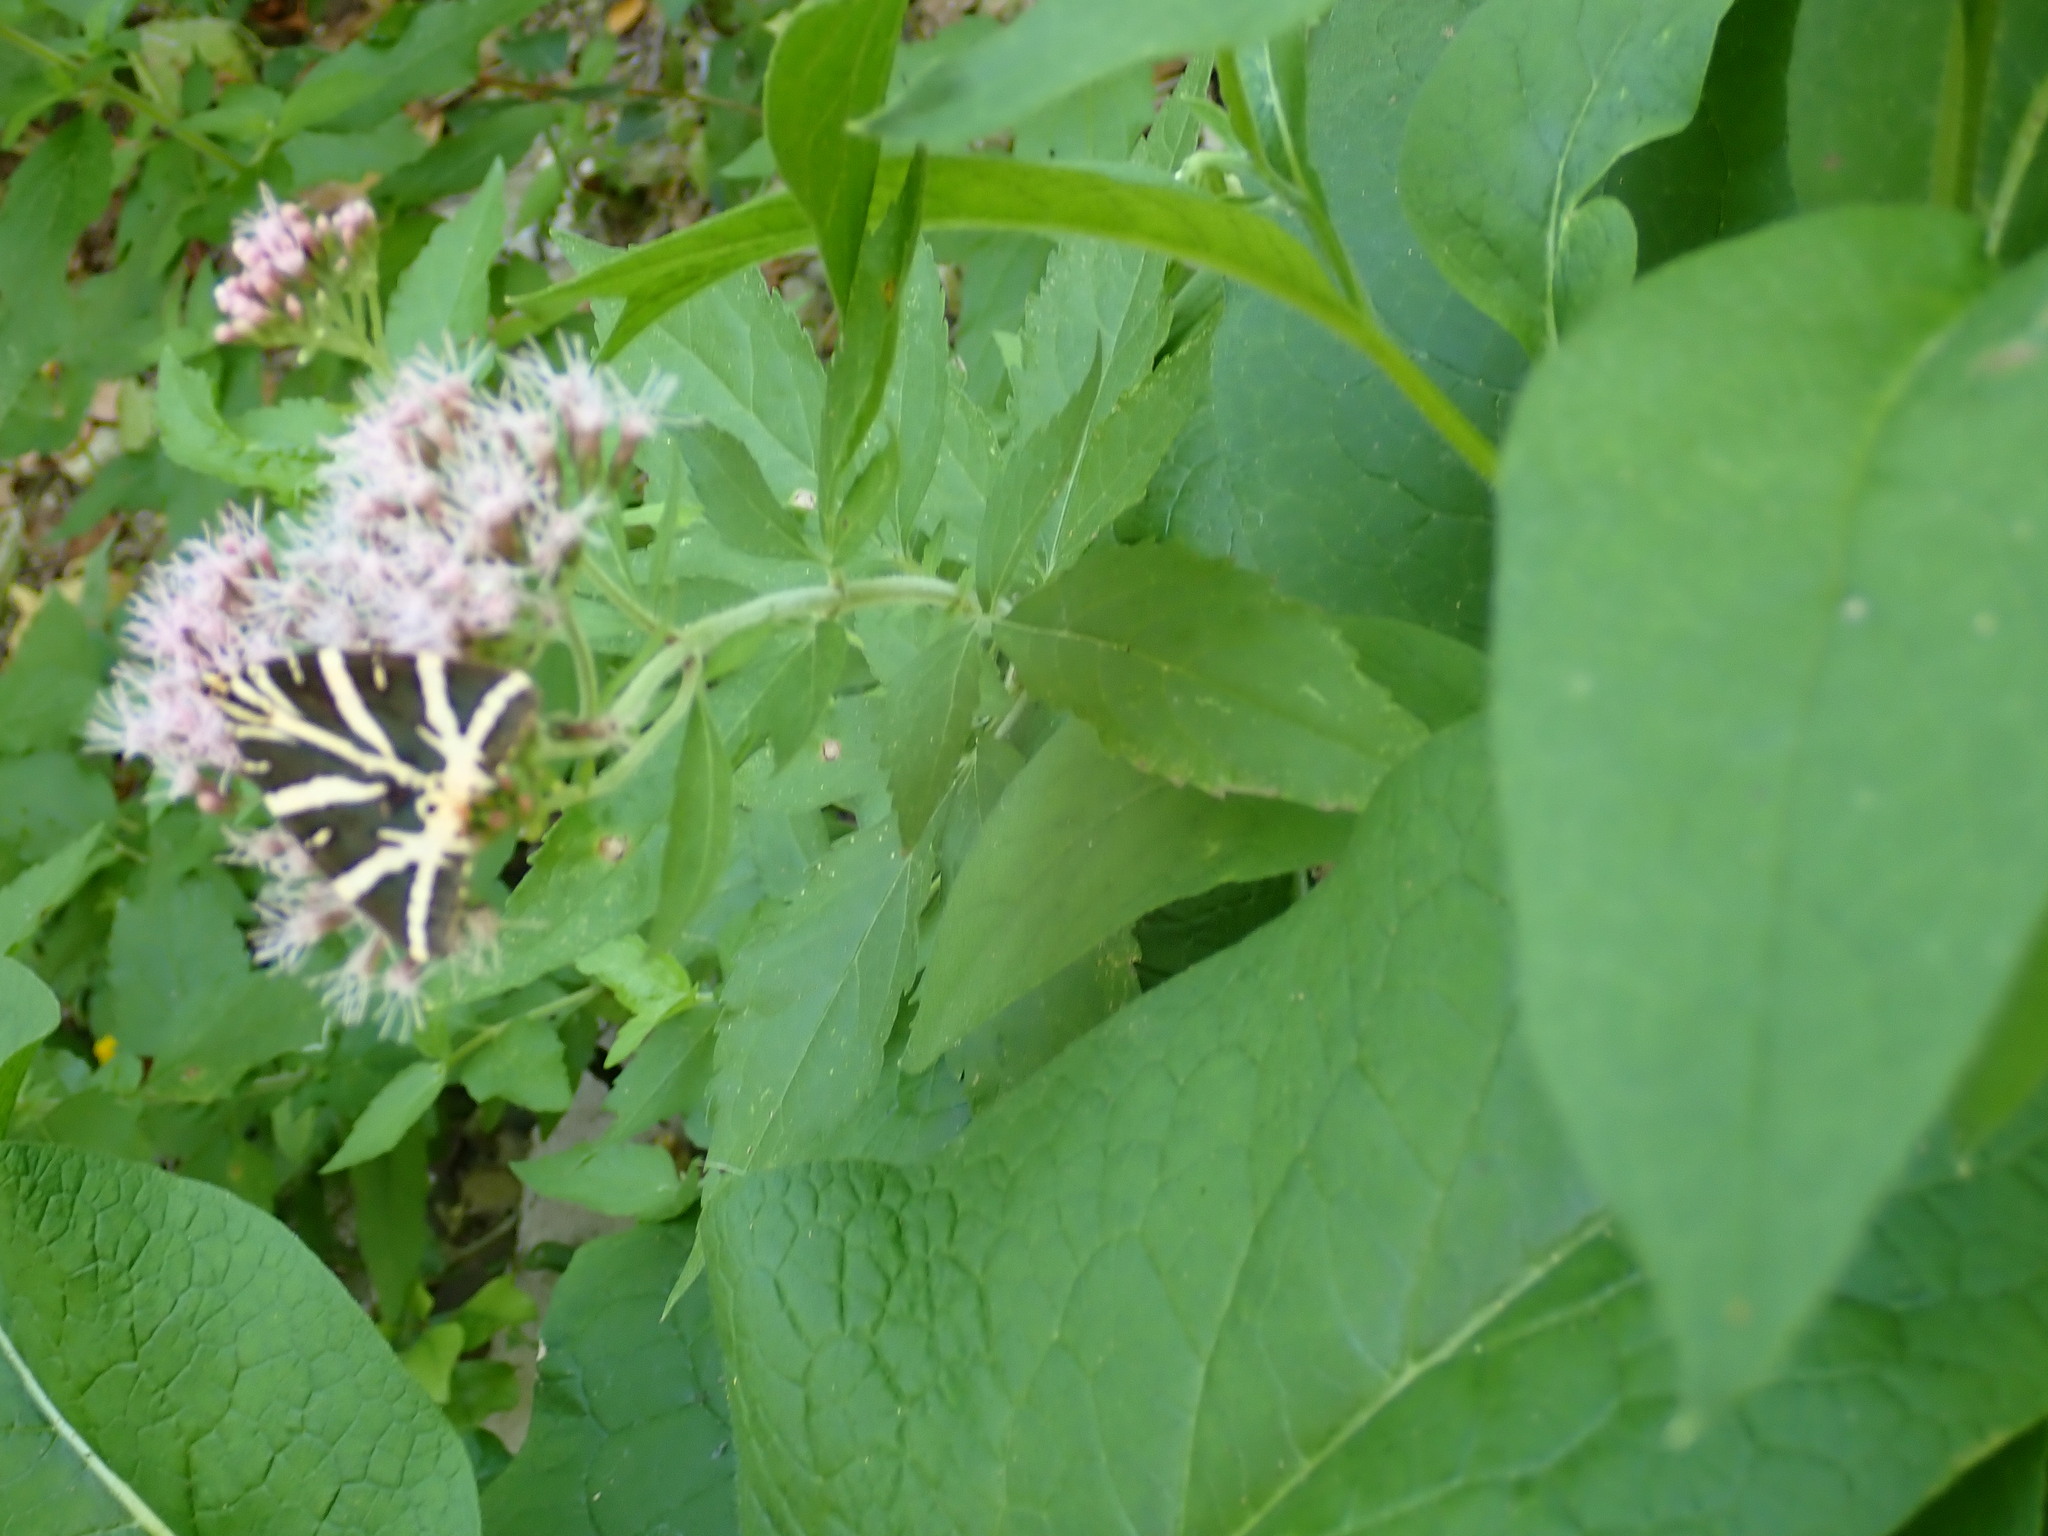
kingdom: Animalia
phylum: Arthropoda
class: Insecta
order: Lepidoptera
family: Erebidae
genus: Euplagia
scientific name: Euplagia quadripunctaria
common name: Jersey tiger
